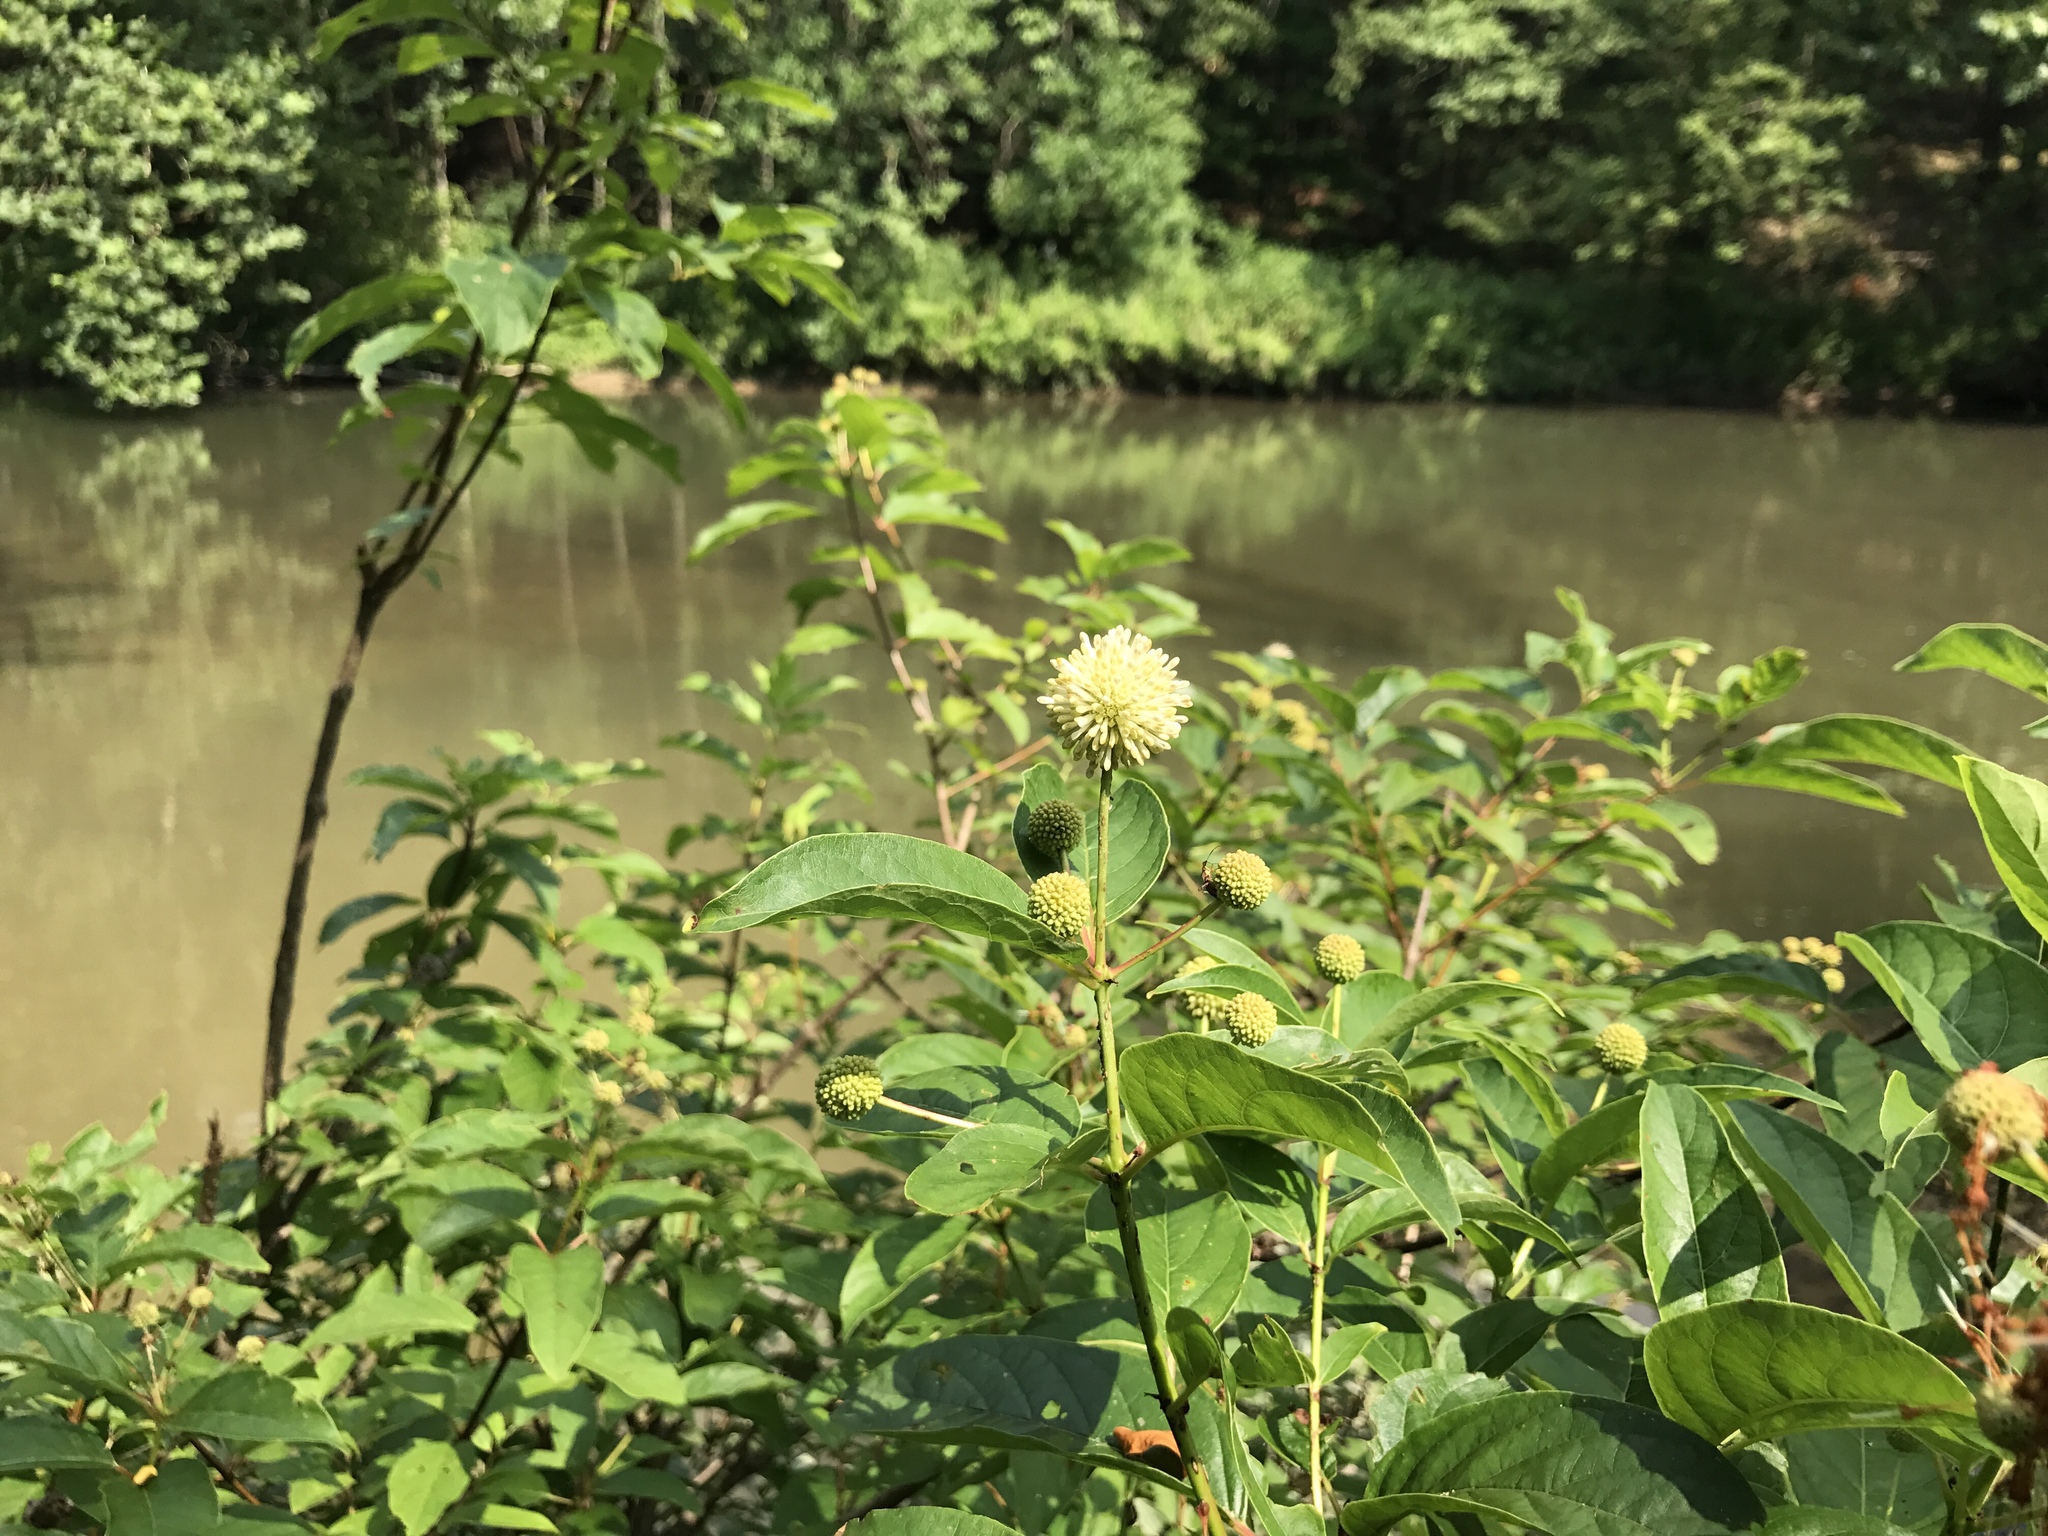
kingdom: Plantae
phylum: Tracheophyta
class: Magnoliopsida
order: Gentianales
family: Rubiaceae
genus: Cephalanthus
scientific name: Cephalanthus occidentalis
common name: Button-willow
